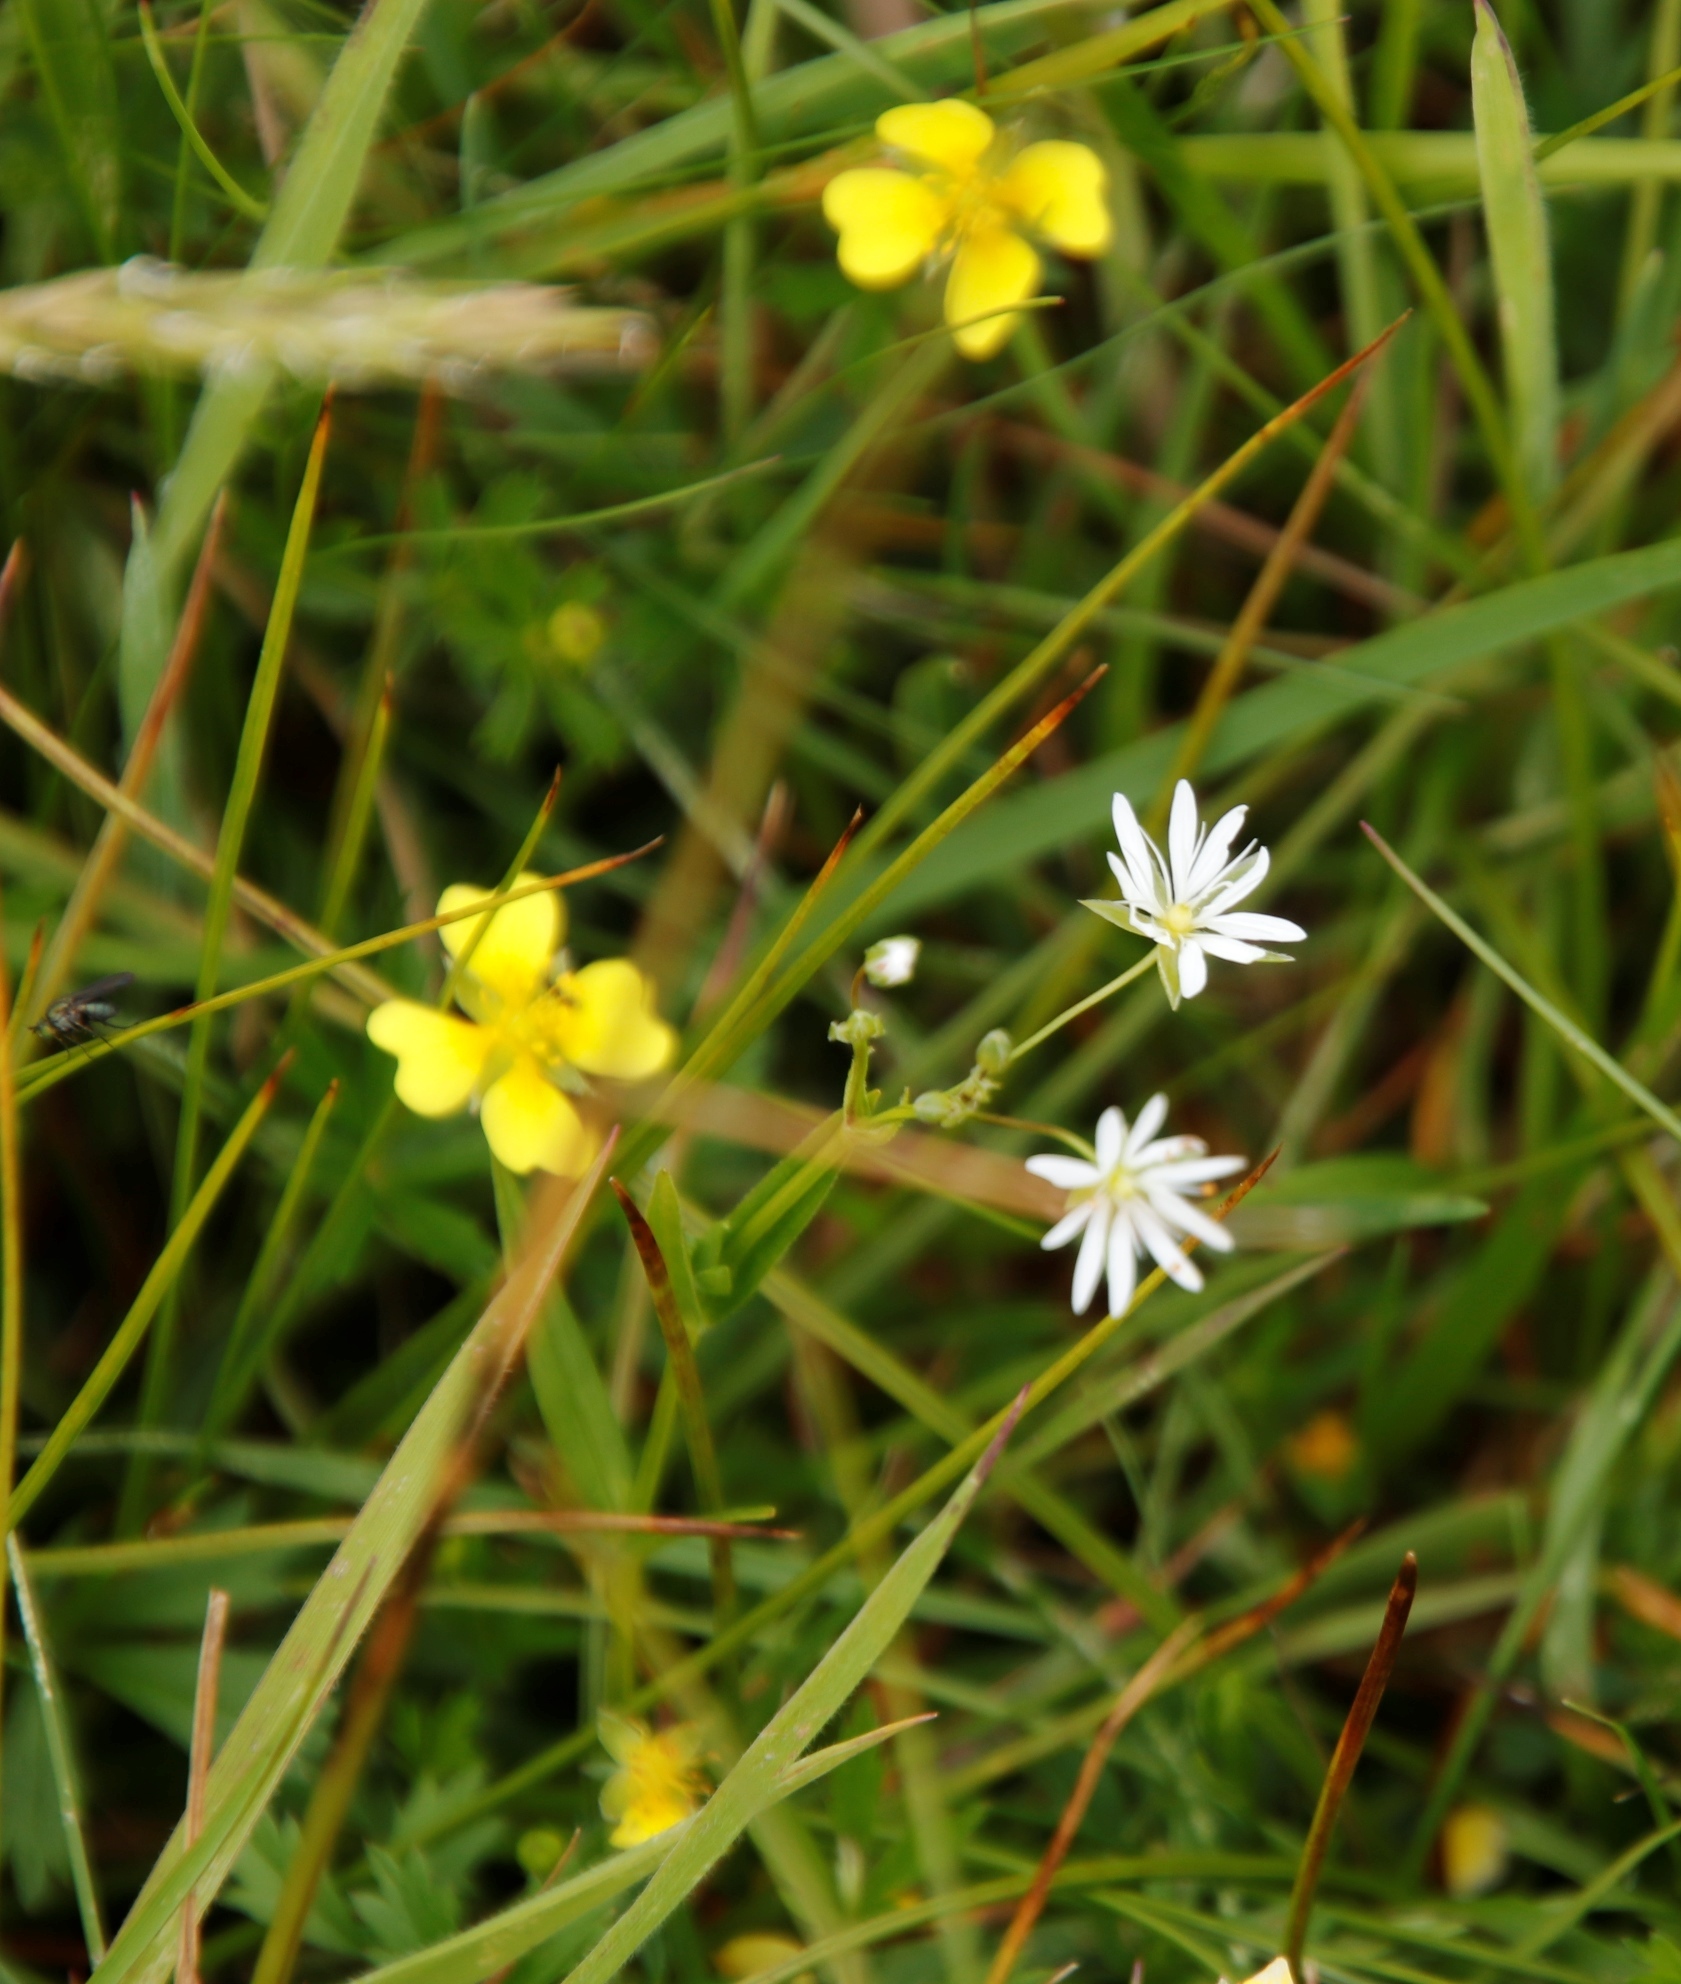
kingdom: Plantae
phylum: Tracheophyta
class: Magnoliopsida
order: Caryophyllales
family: Caryophyllaceae
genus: Stellaria
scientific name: Stellaria graminea
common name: Grass-like starwort
